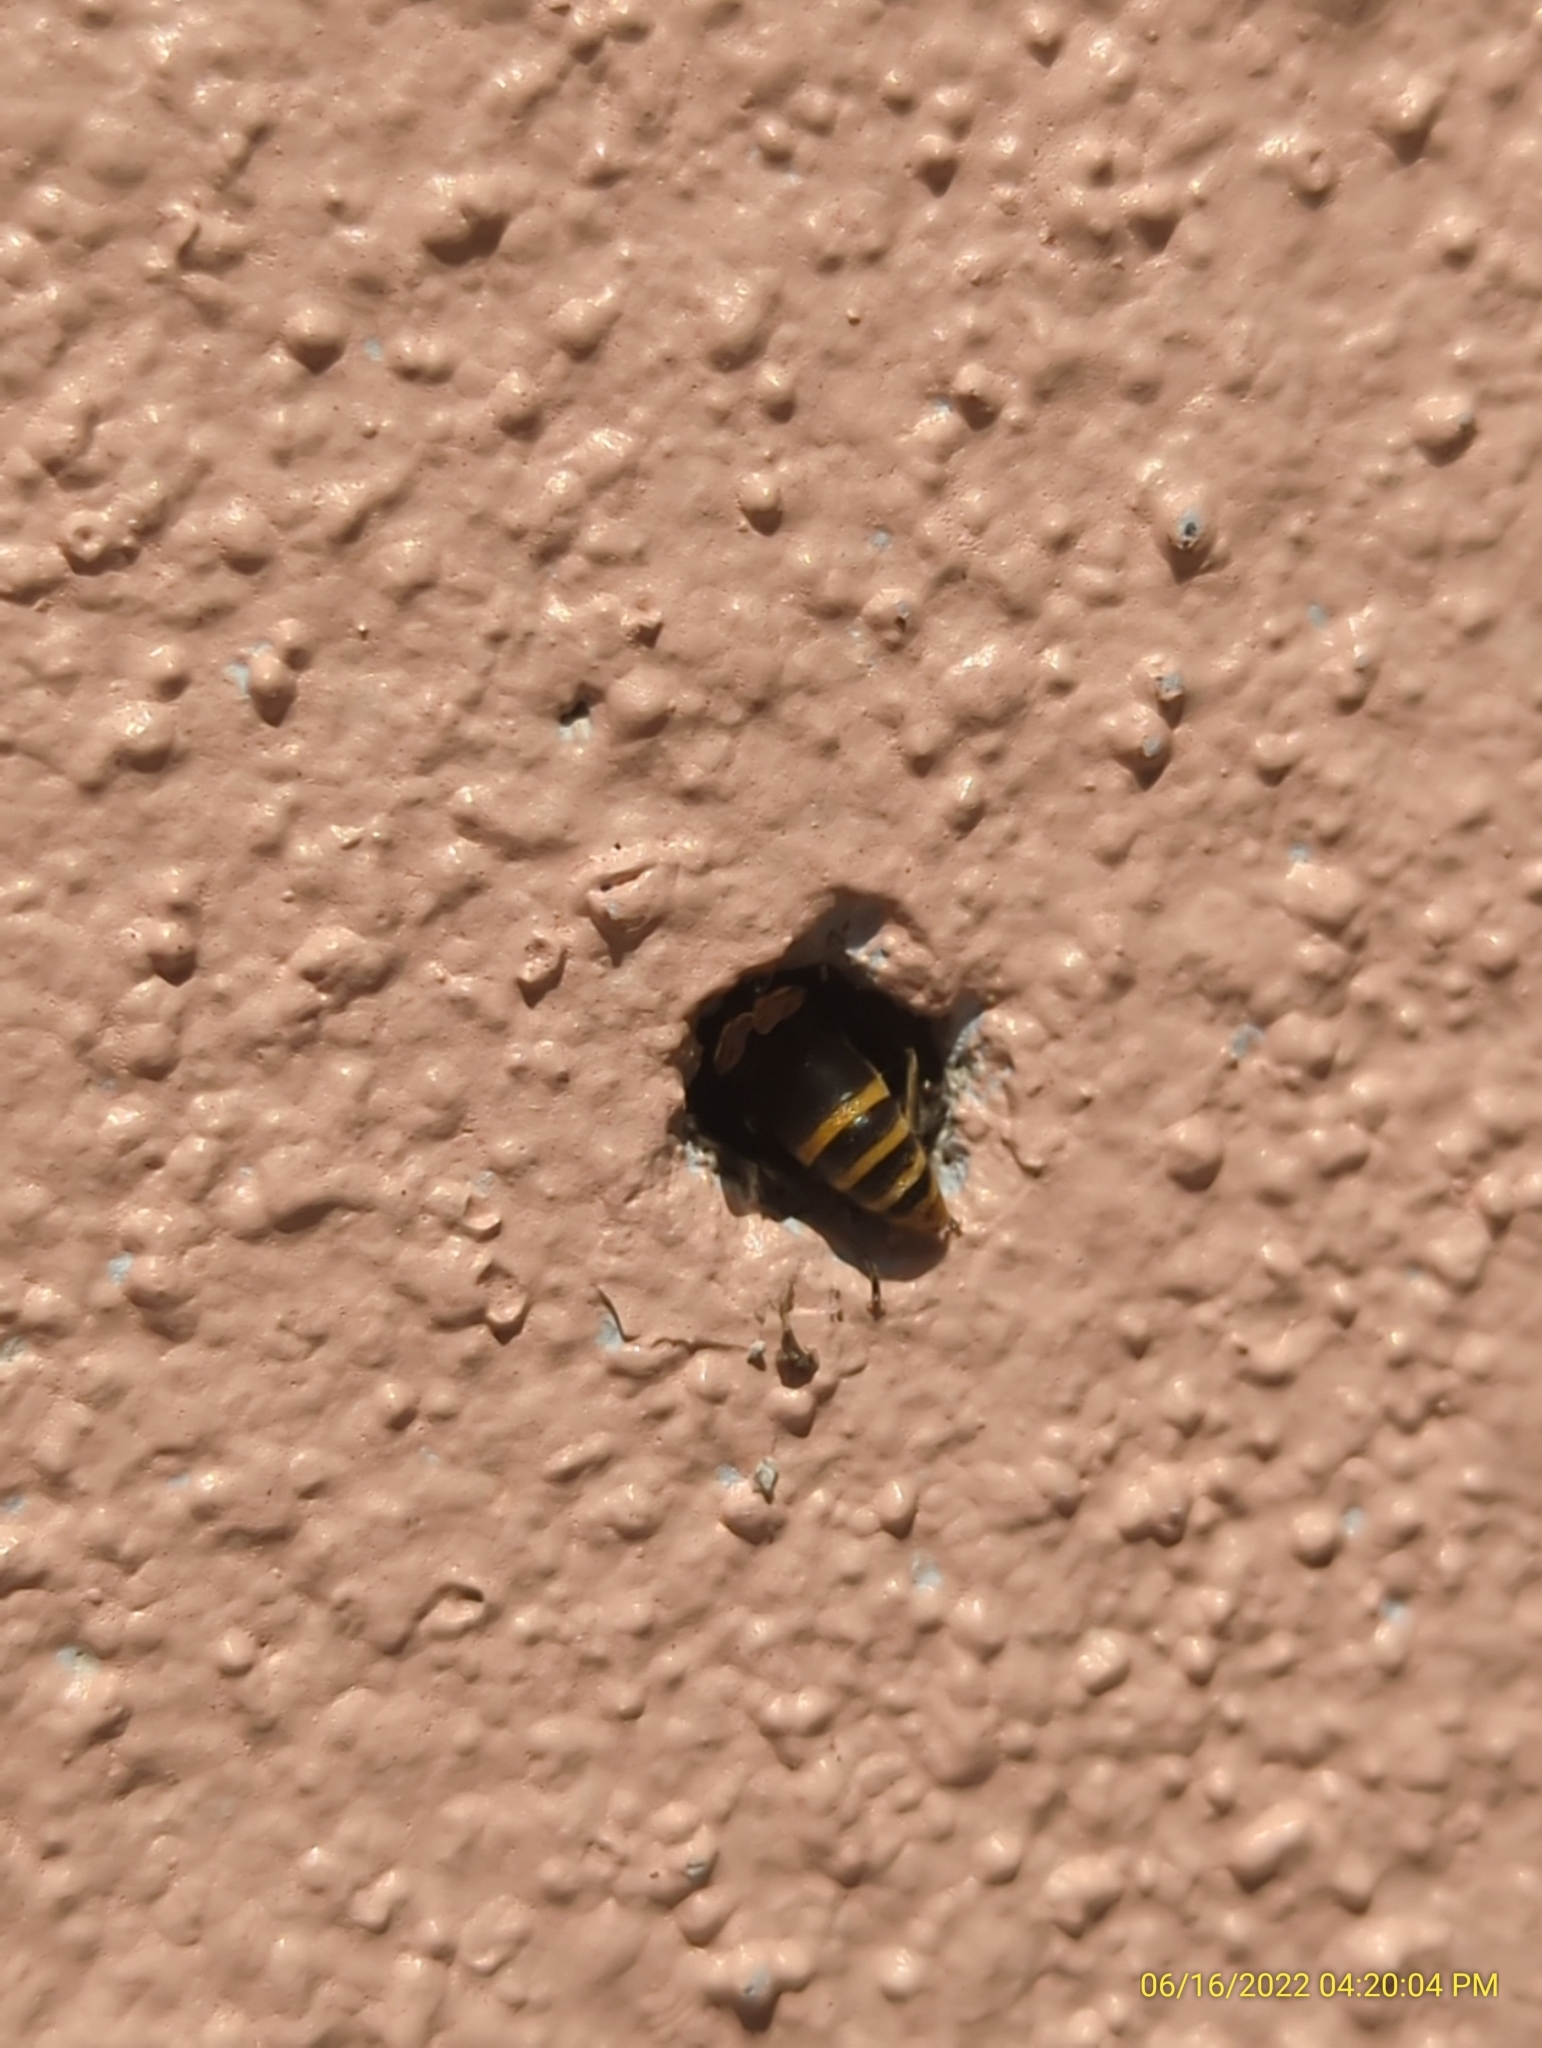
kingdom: Animalia
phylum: Arthropoda
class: Insecta
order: Hymenoptera
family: Eumenidae
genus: Pachodynerus
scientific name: Pachodynerus nasidens
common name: Key hole wasp
